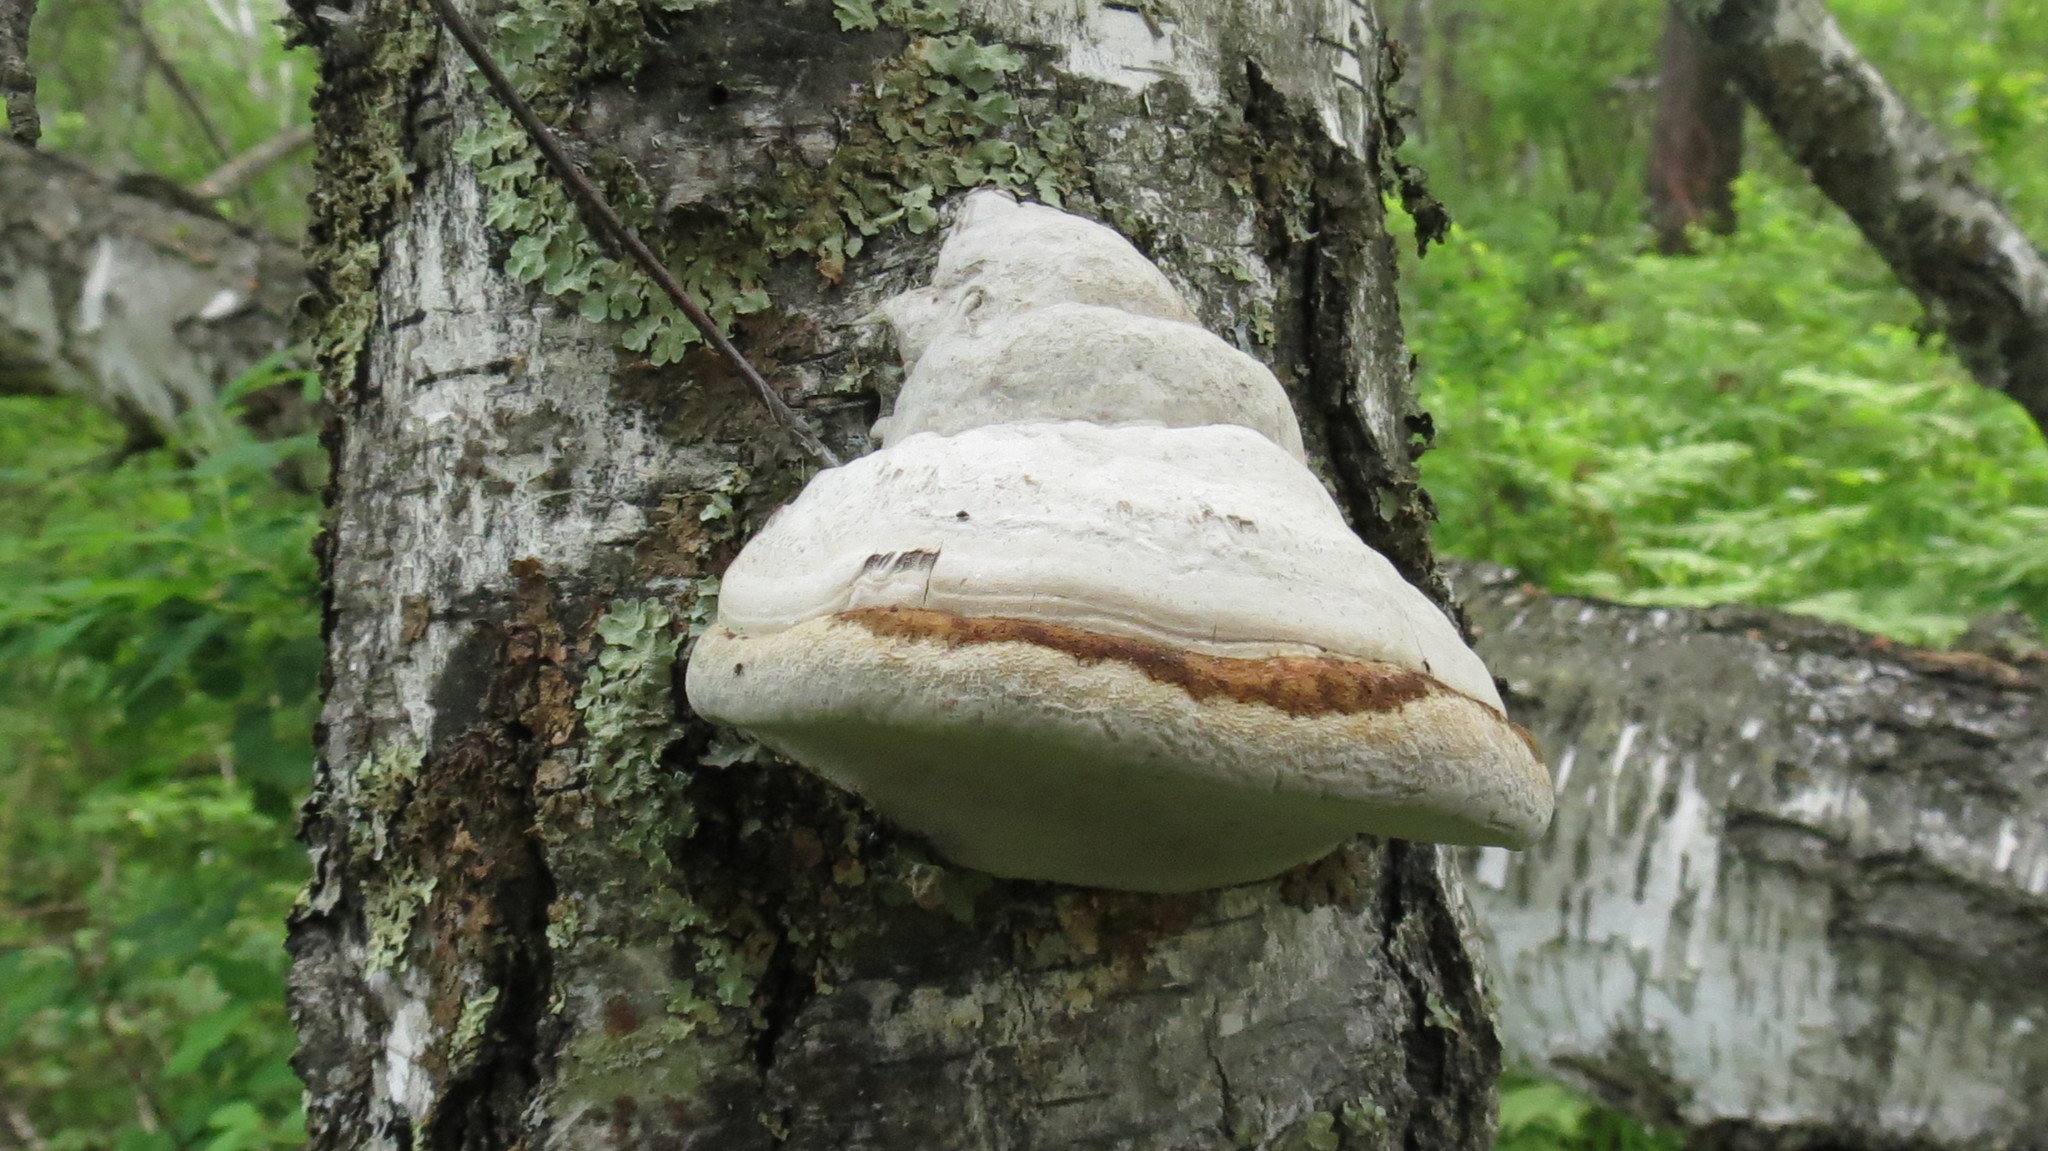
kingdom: Fungi
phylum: Basidiomycota
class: Agaricomycetes
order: Polyporales
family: Polyporaceae
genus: Fomes
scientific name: Fomes fomentarius
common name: Hoof fungus
